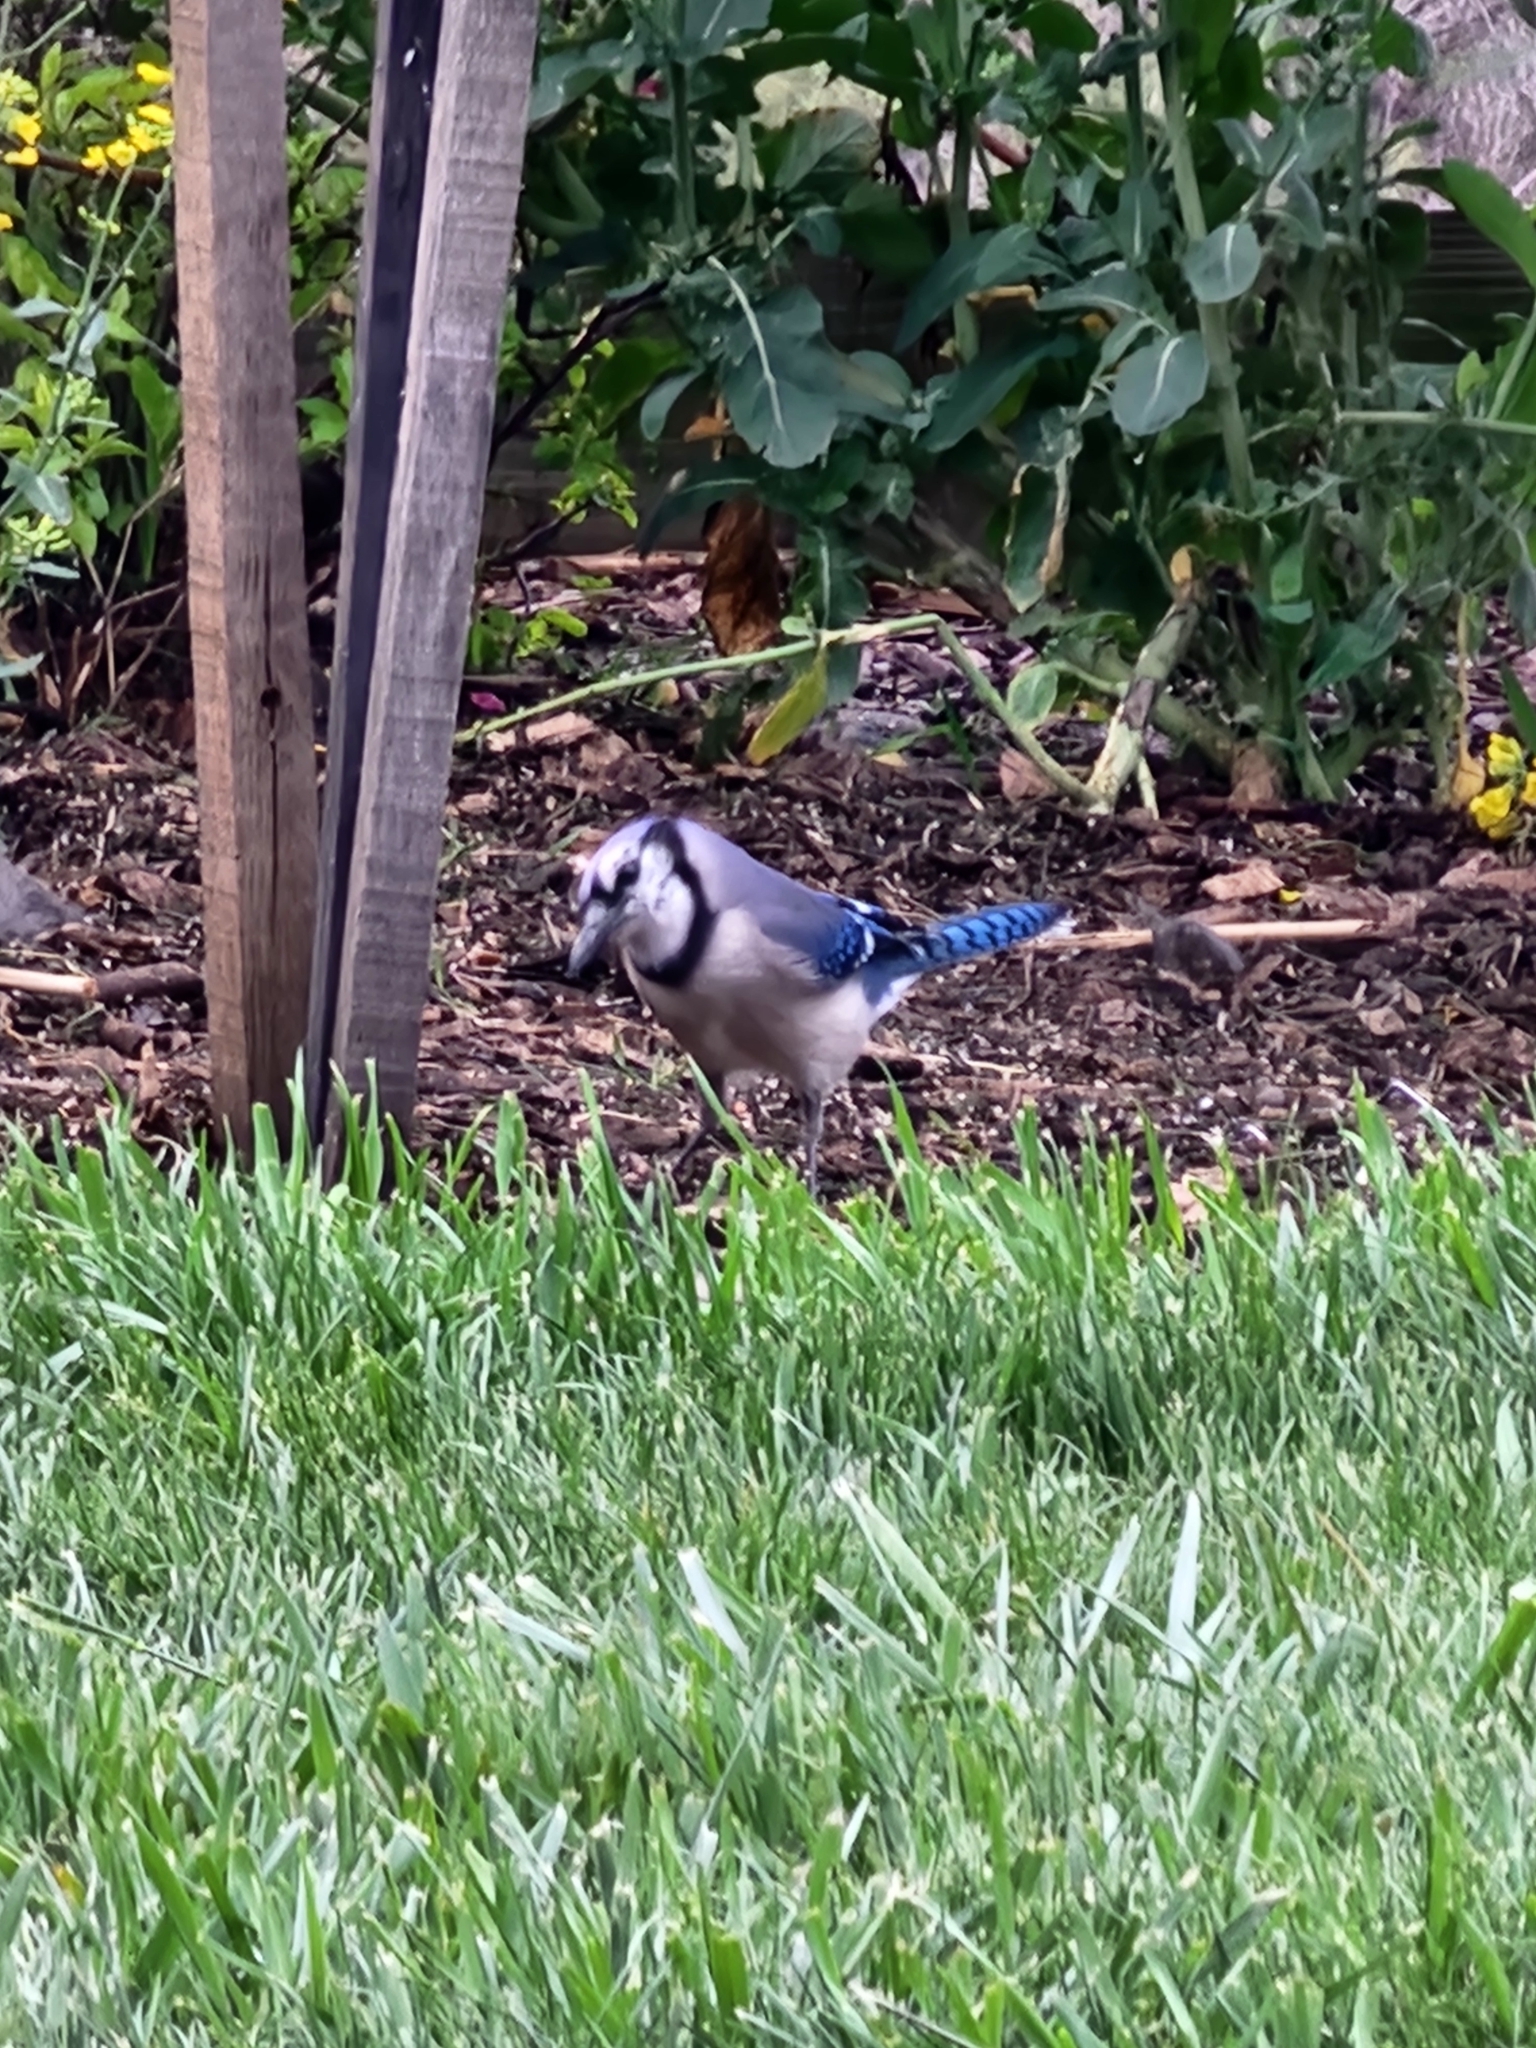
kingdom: Animalia
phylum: Chordata
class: Aves
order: Passeriformes
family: Corvidae
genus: Cyanocitta
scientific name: Cyanocitta cristata
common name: Blue jay
